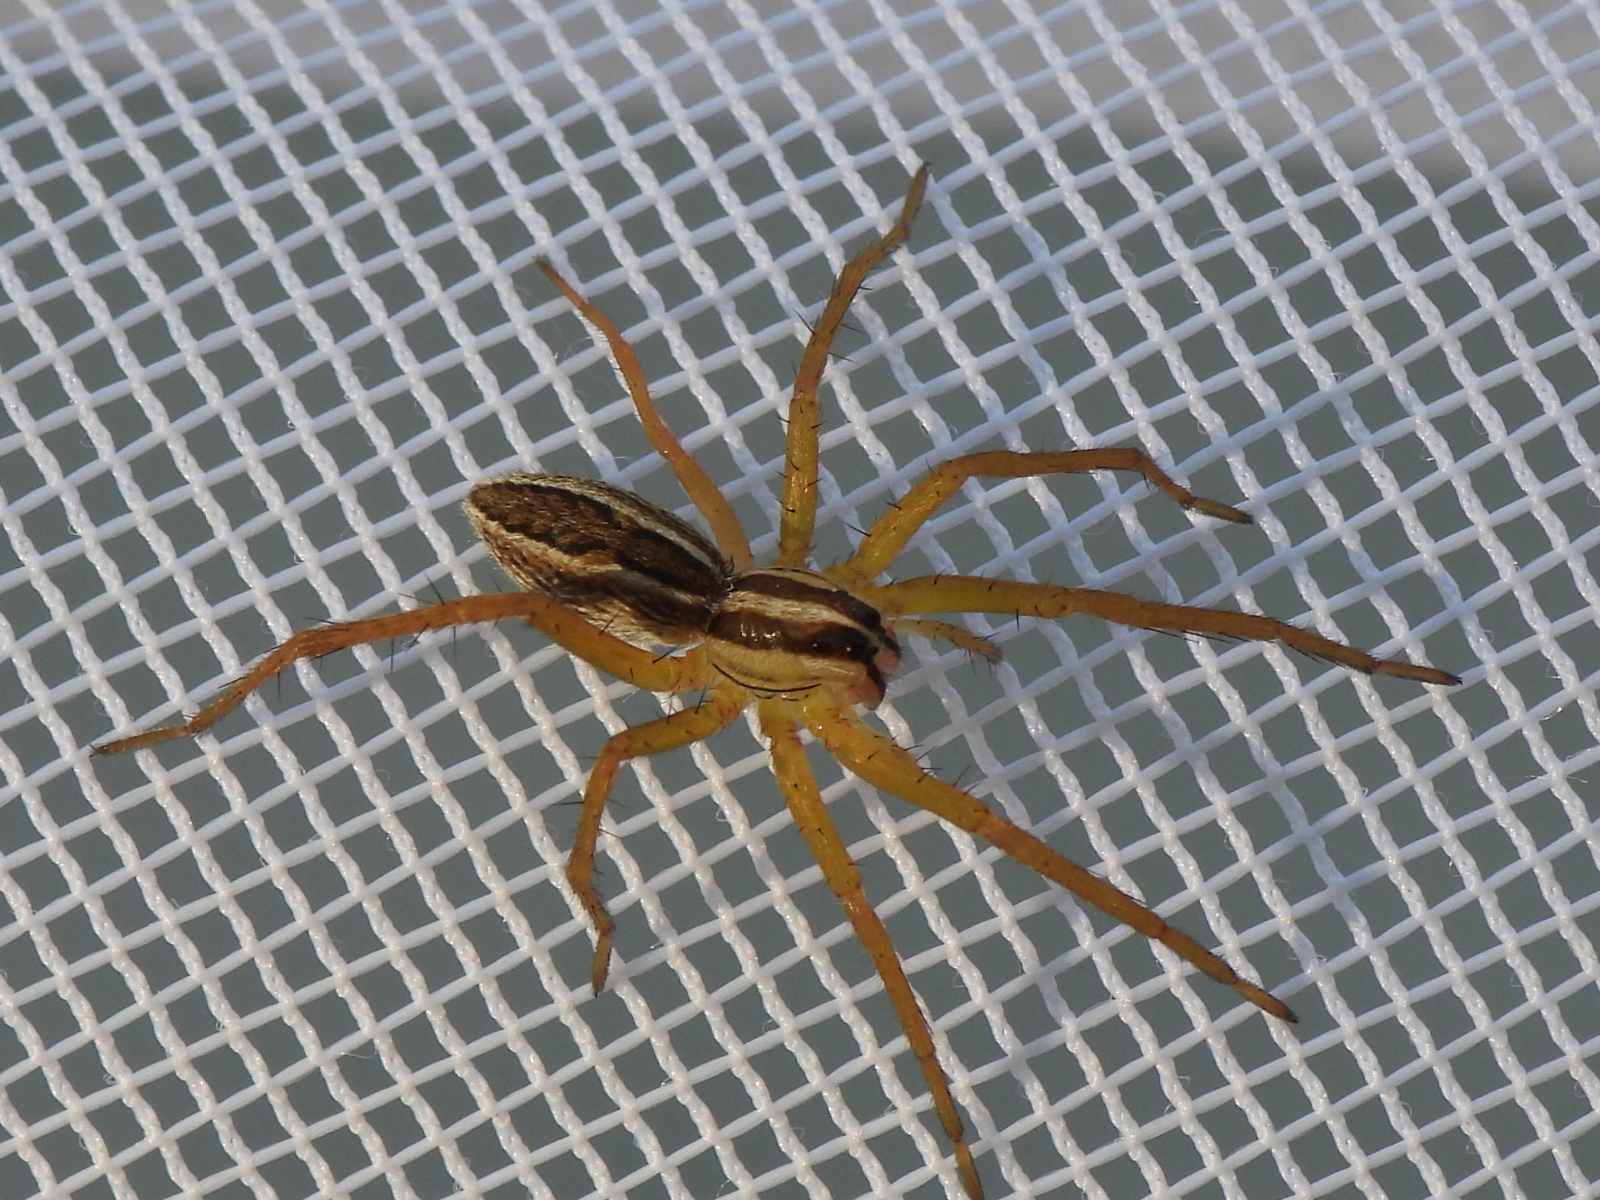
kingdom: Animalia
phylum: Arthropoda
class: Arachnida
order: Araneae
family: Lycosidae
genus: Rabidosa
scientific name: Rabidosa rabida
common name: Rabid wolf spider
